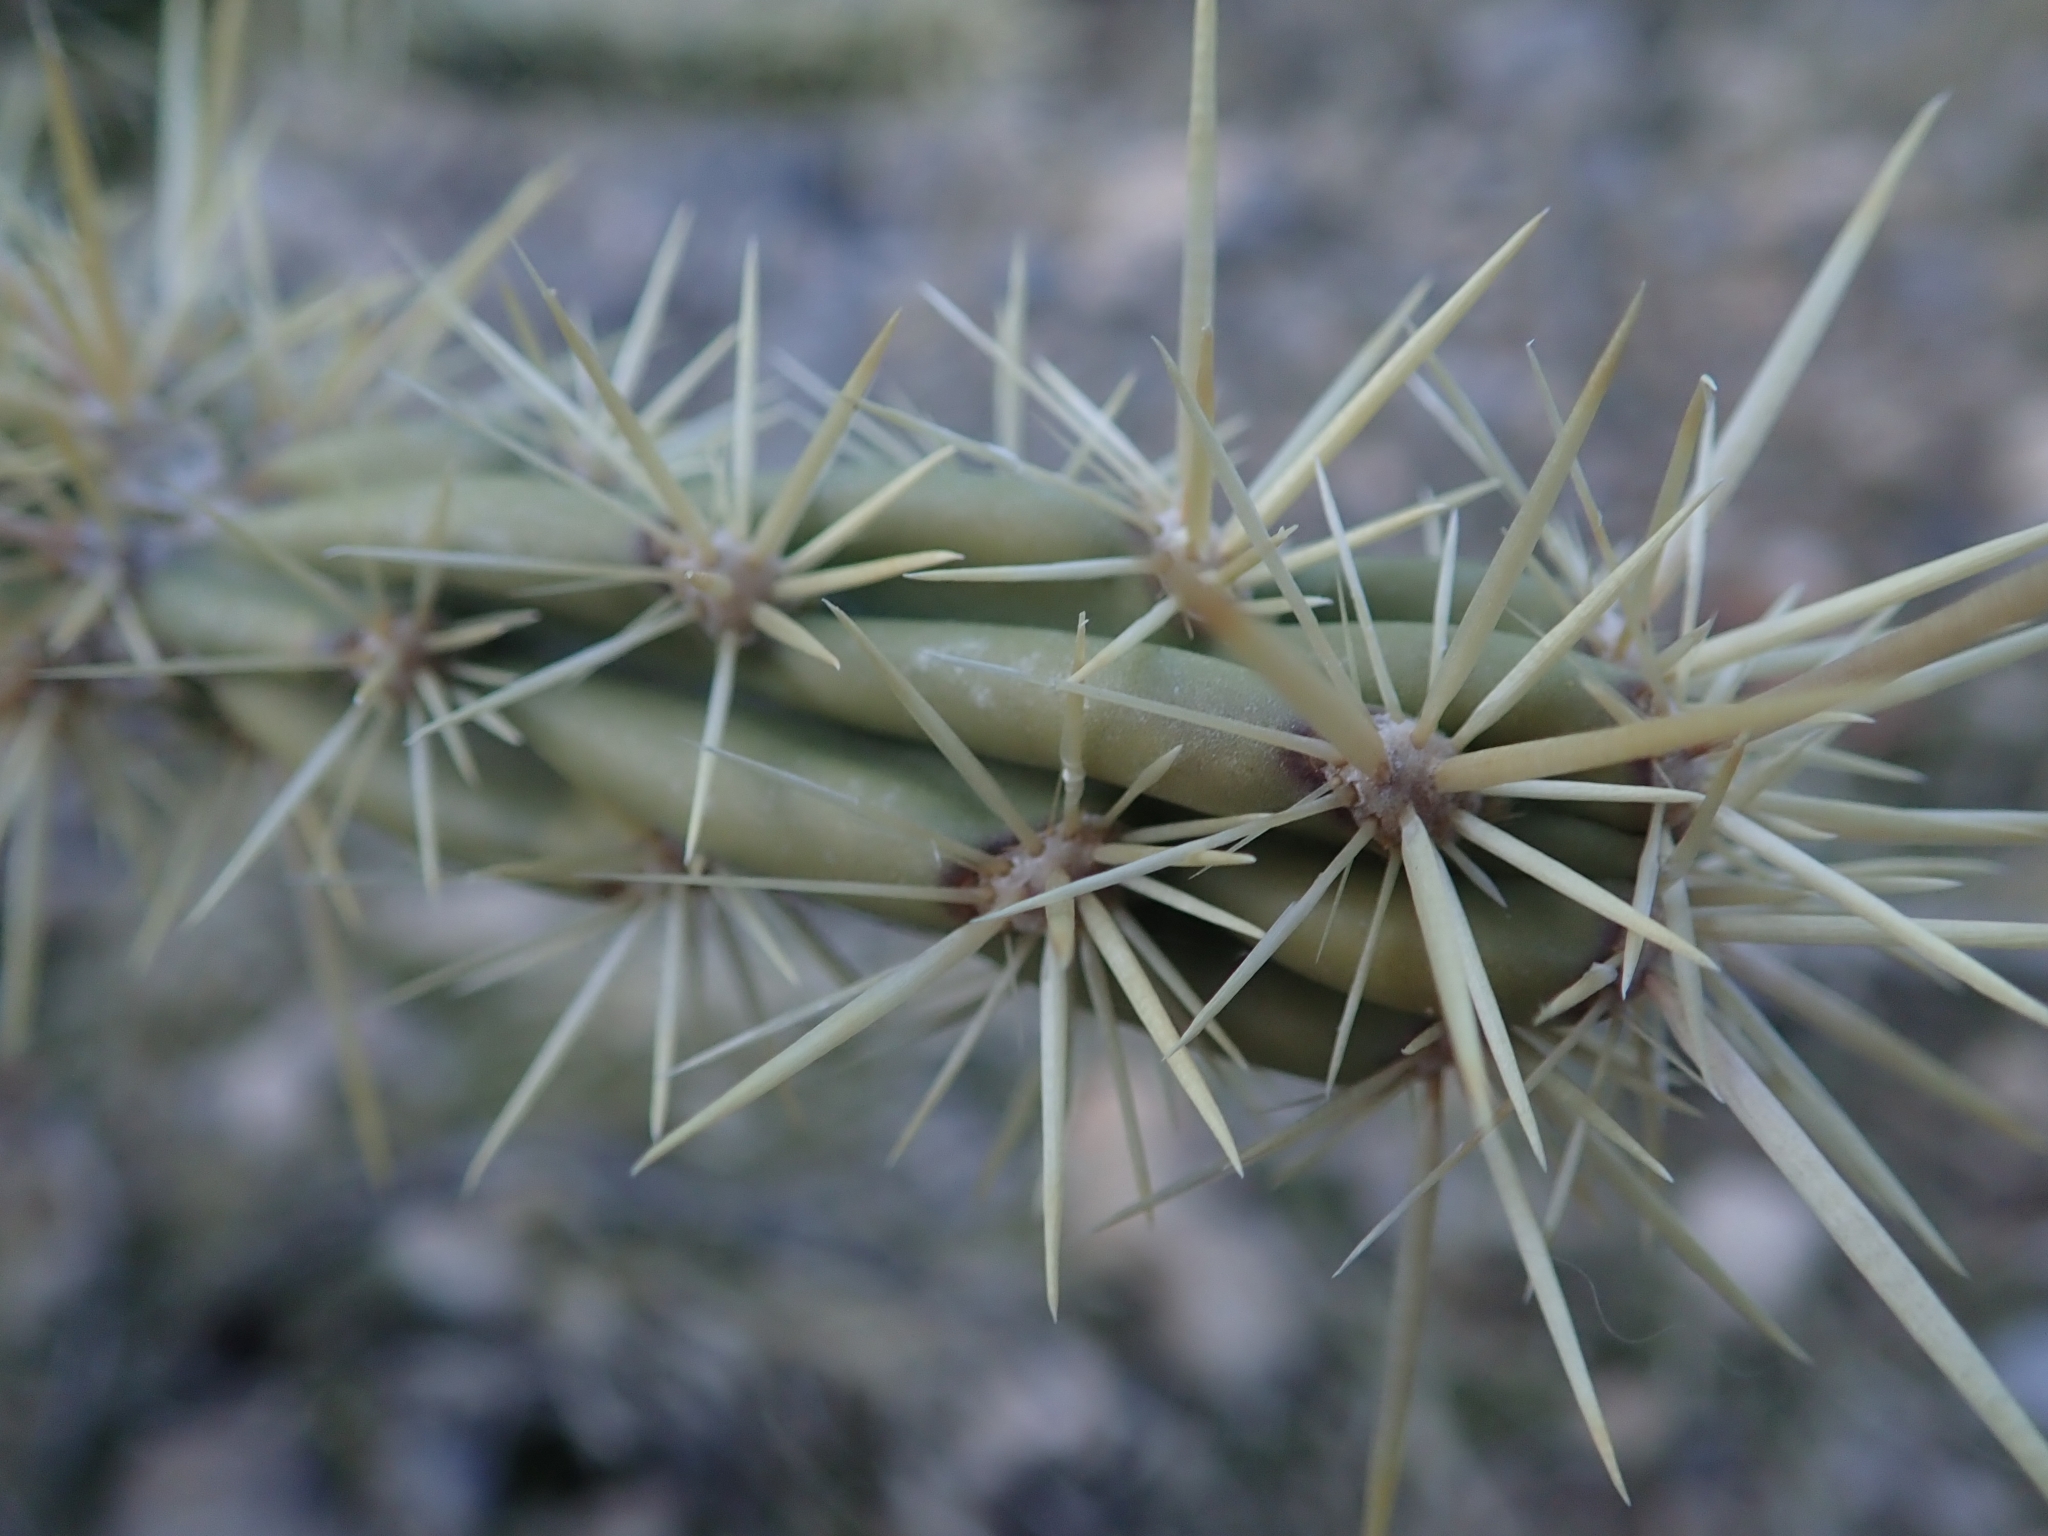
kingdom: Plantae
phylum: Tracheophyta
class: Magnoliopsida
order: Caryophyllales
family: Cactaceae
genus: Cylindropuntia
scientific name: Cylindropuntia acanthocarpa
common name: Buckhorn cholla
